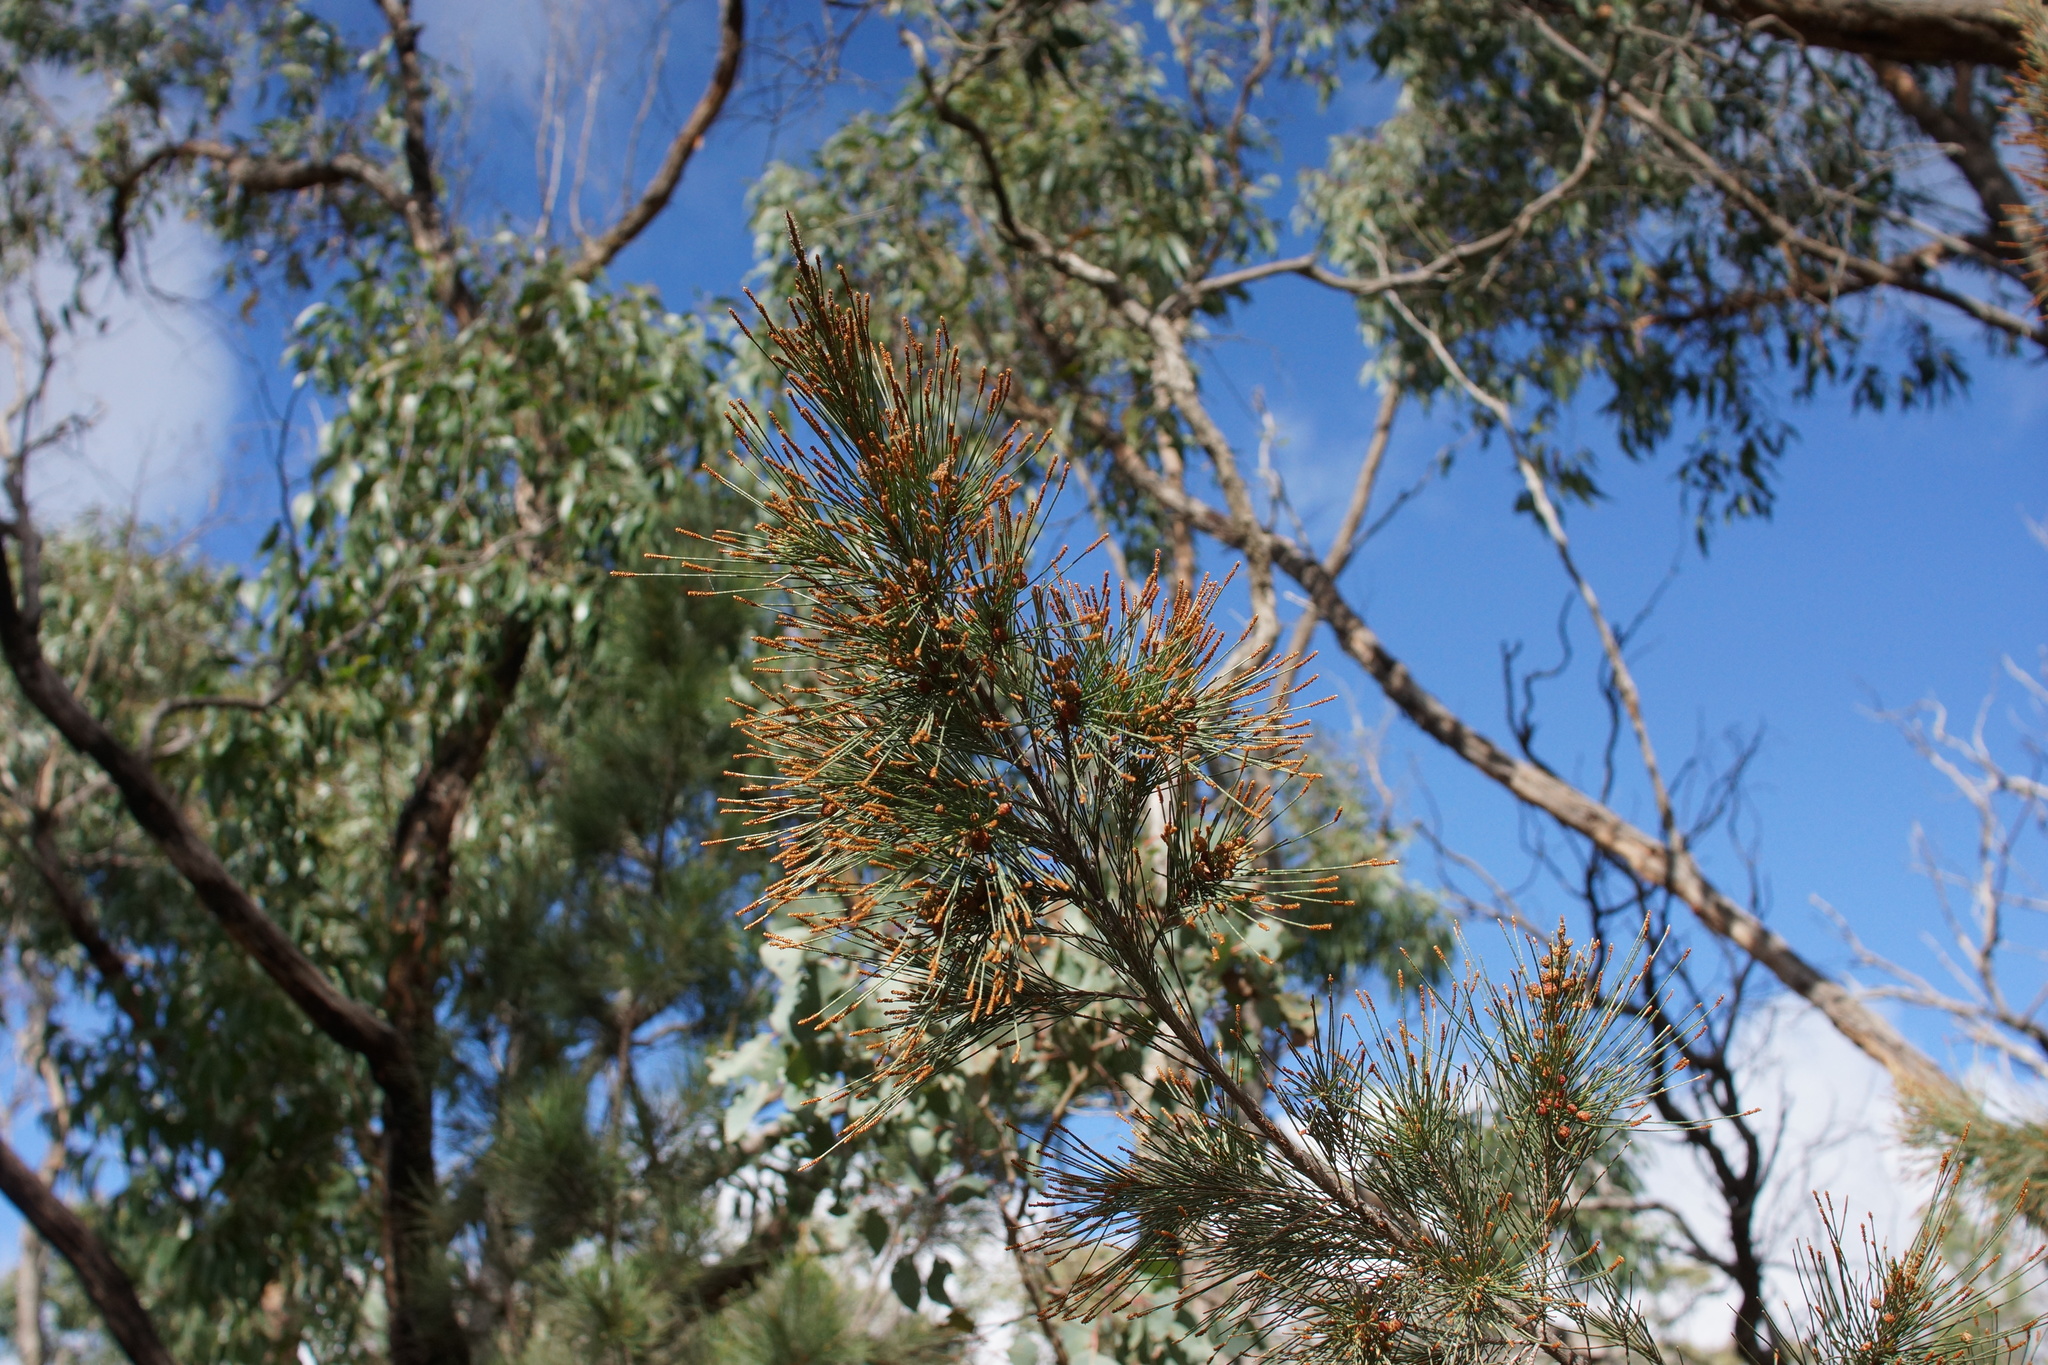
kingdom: Plantae
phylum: Tracheophyta
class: Magnoliopsida
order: Fagales
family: Casuarinaceae
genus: Allocasuarina
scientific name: Allocasuarina littoralis
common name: Black she-oak
